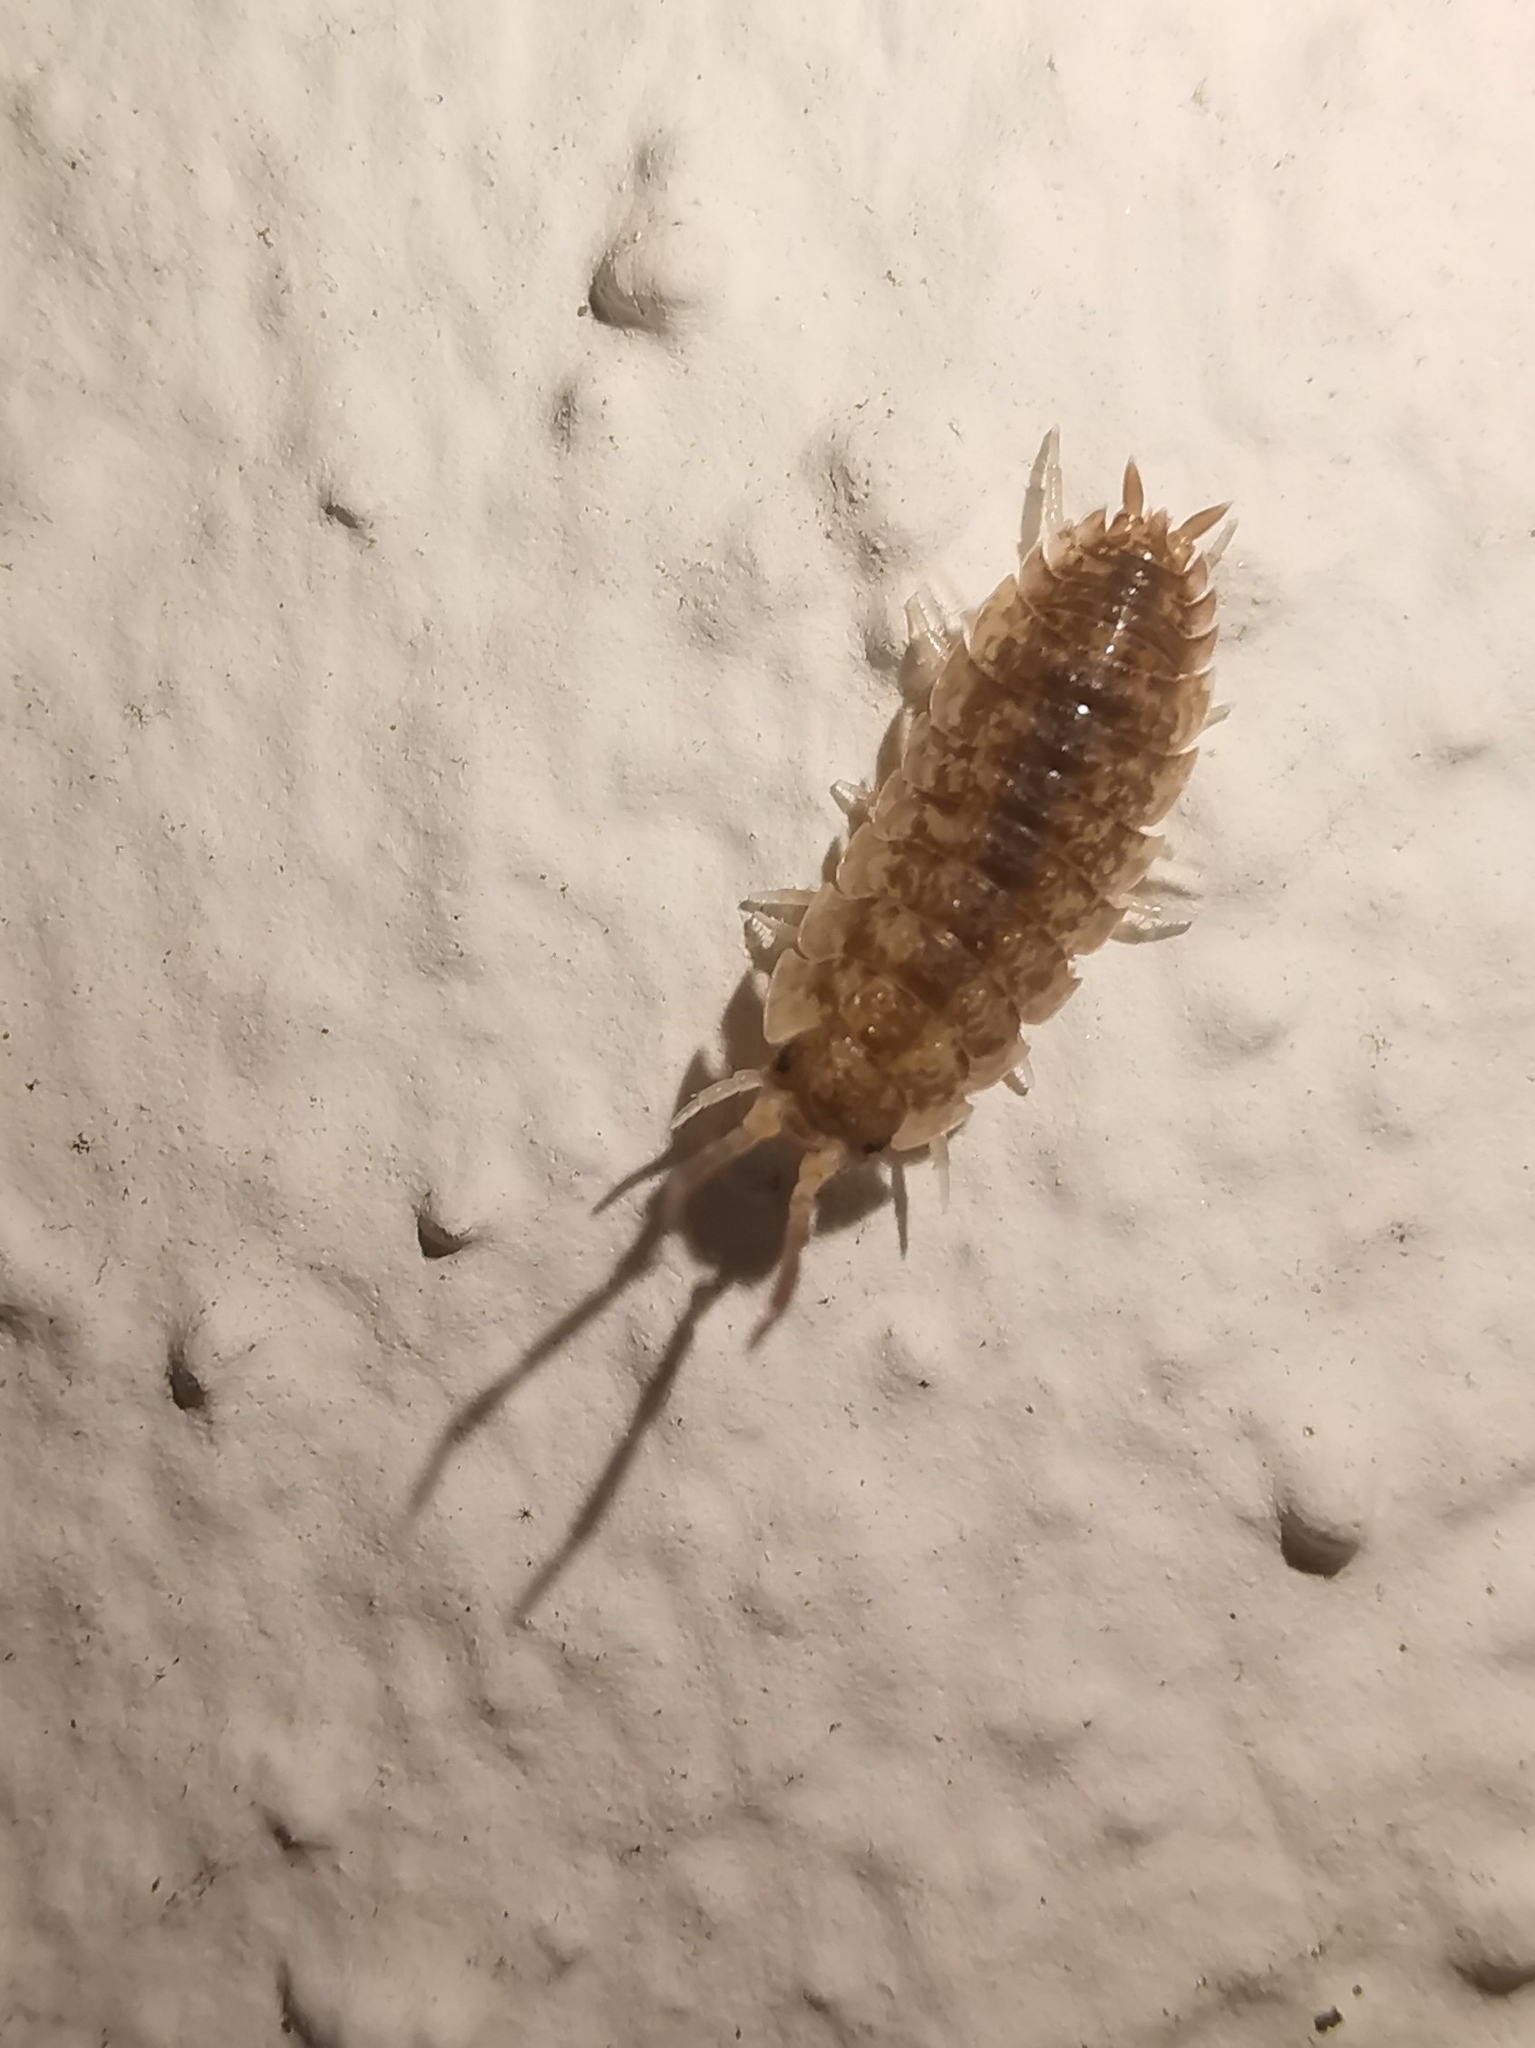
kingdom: Animalia
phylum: Arthropoda
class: Malacostraca
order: Isopoda
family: Porcellionidae
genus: Porcellio
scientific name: Porcellio scaber
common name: Common rough woodlouse
